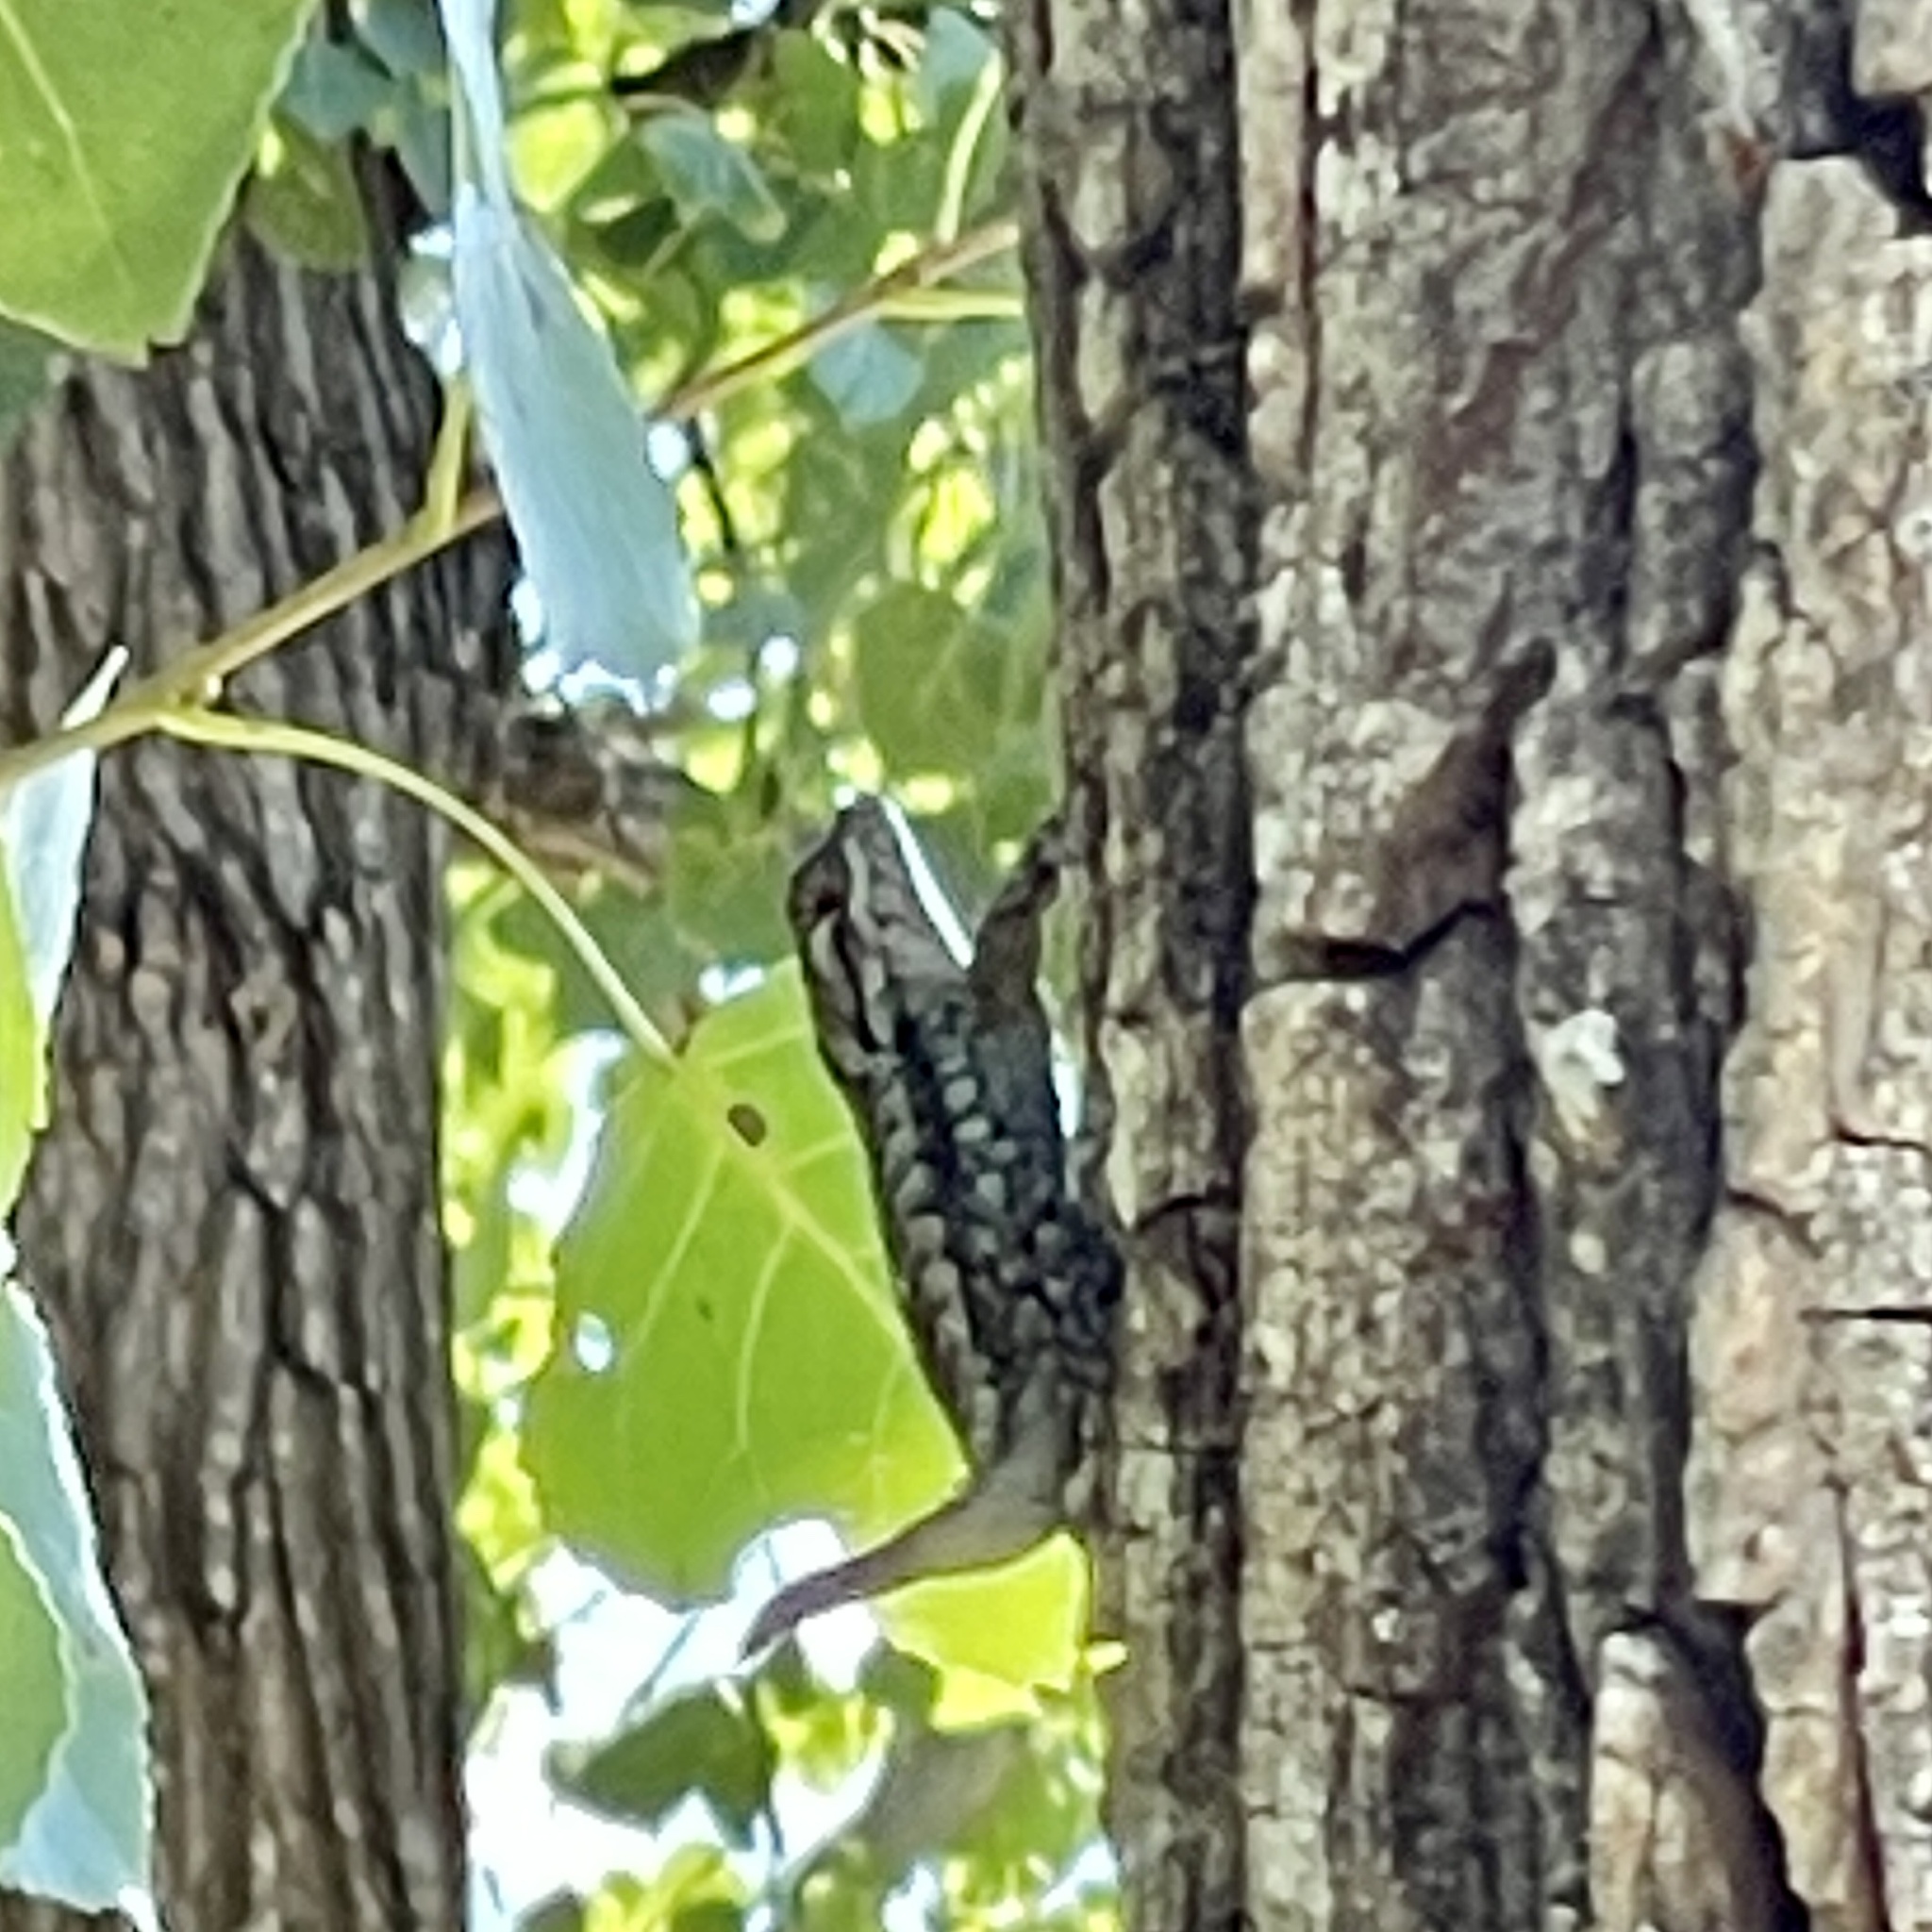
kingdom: Animalia
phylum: Chordata
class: Squamata
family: Phrynosomatidae
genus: Sceloporus
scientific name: Sceloporus olivaceus
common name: Texas spiny lizard
